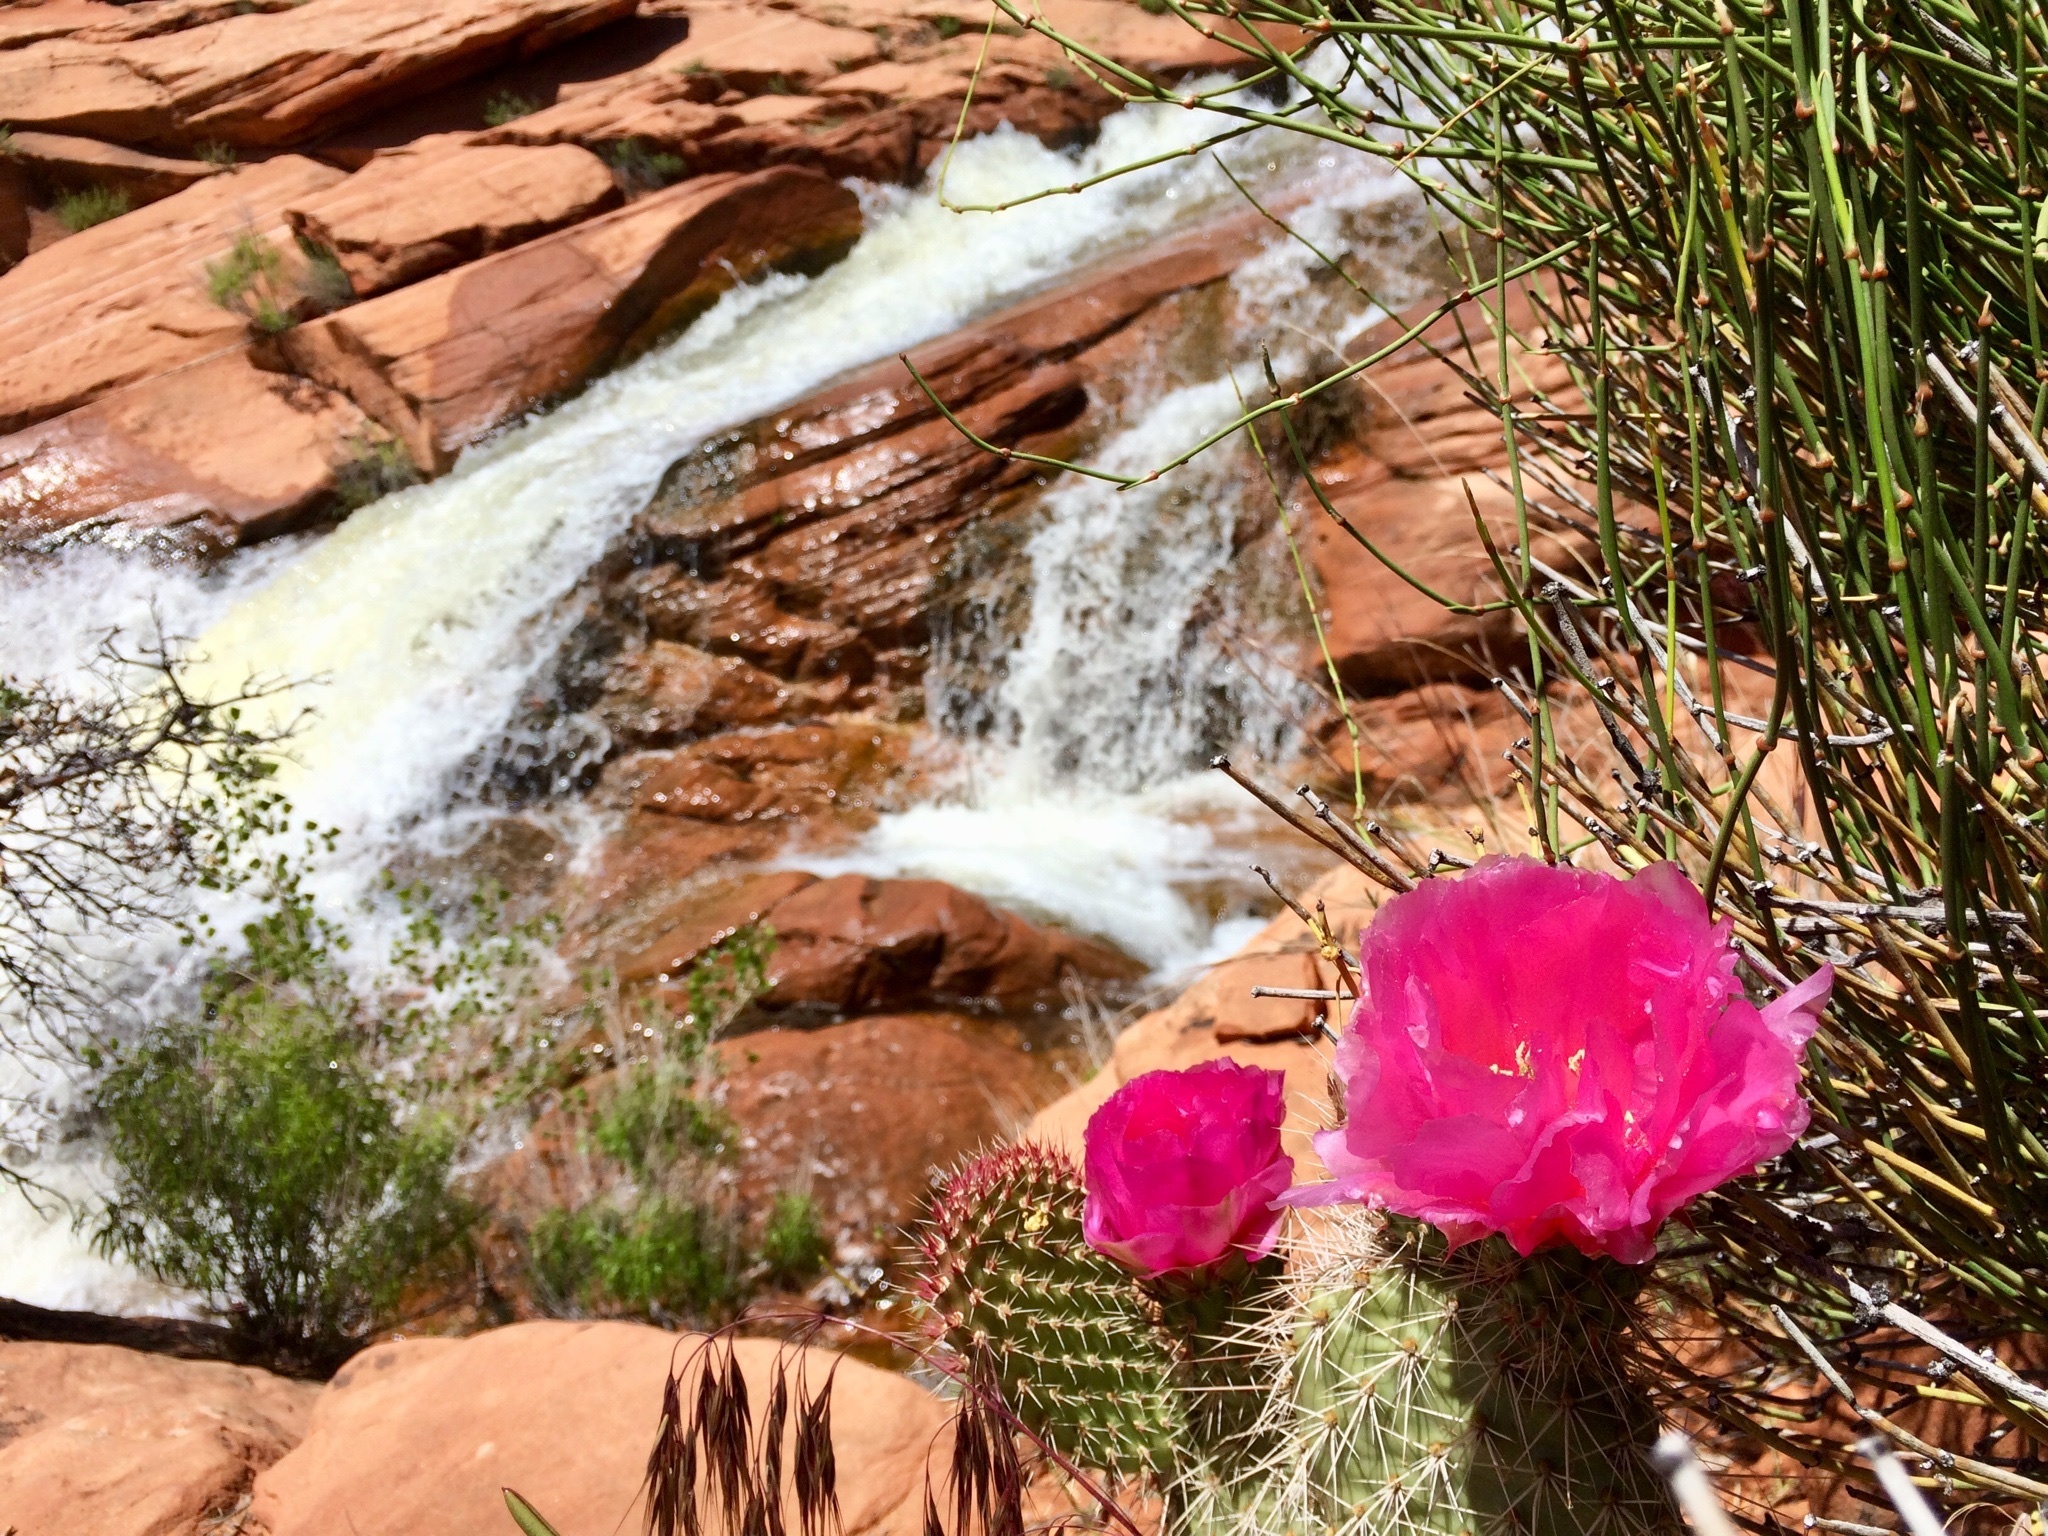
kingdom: Plantae
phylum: Tracheophyta
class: Magnoliopsida
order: Caryophyllales
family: Cactaceae
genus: Opuntia
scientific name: Opuntia polyacantha
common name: Plains prickly-pear
